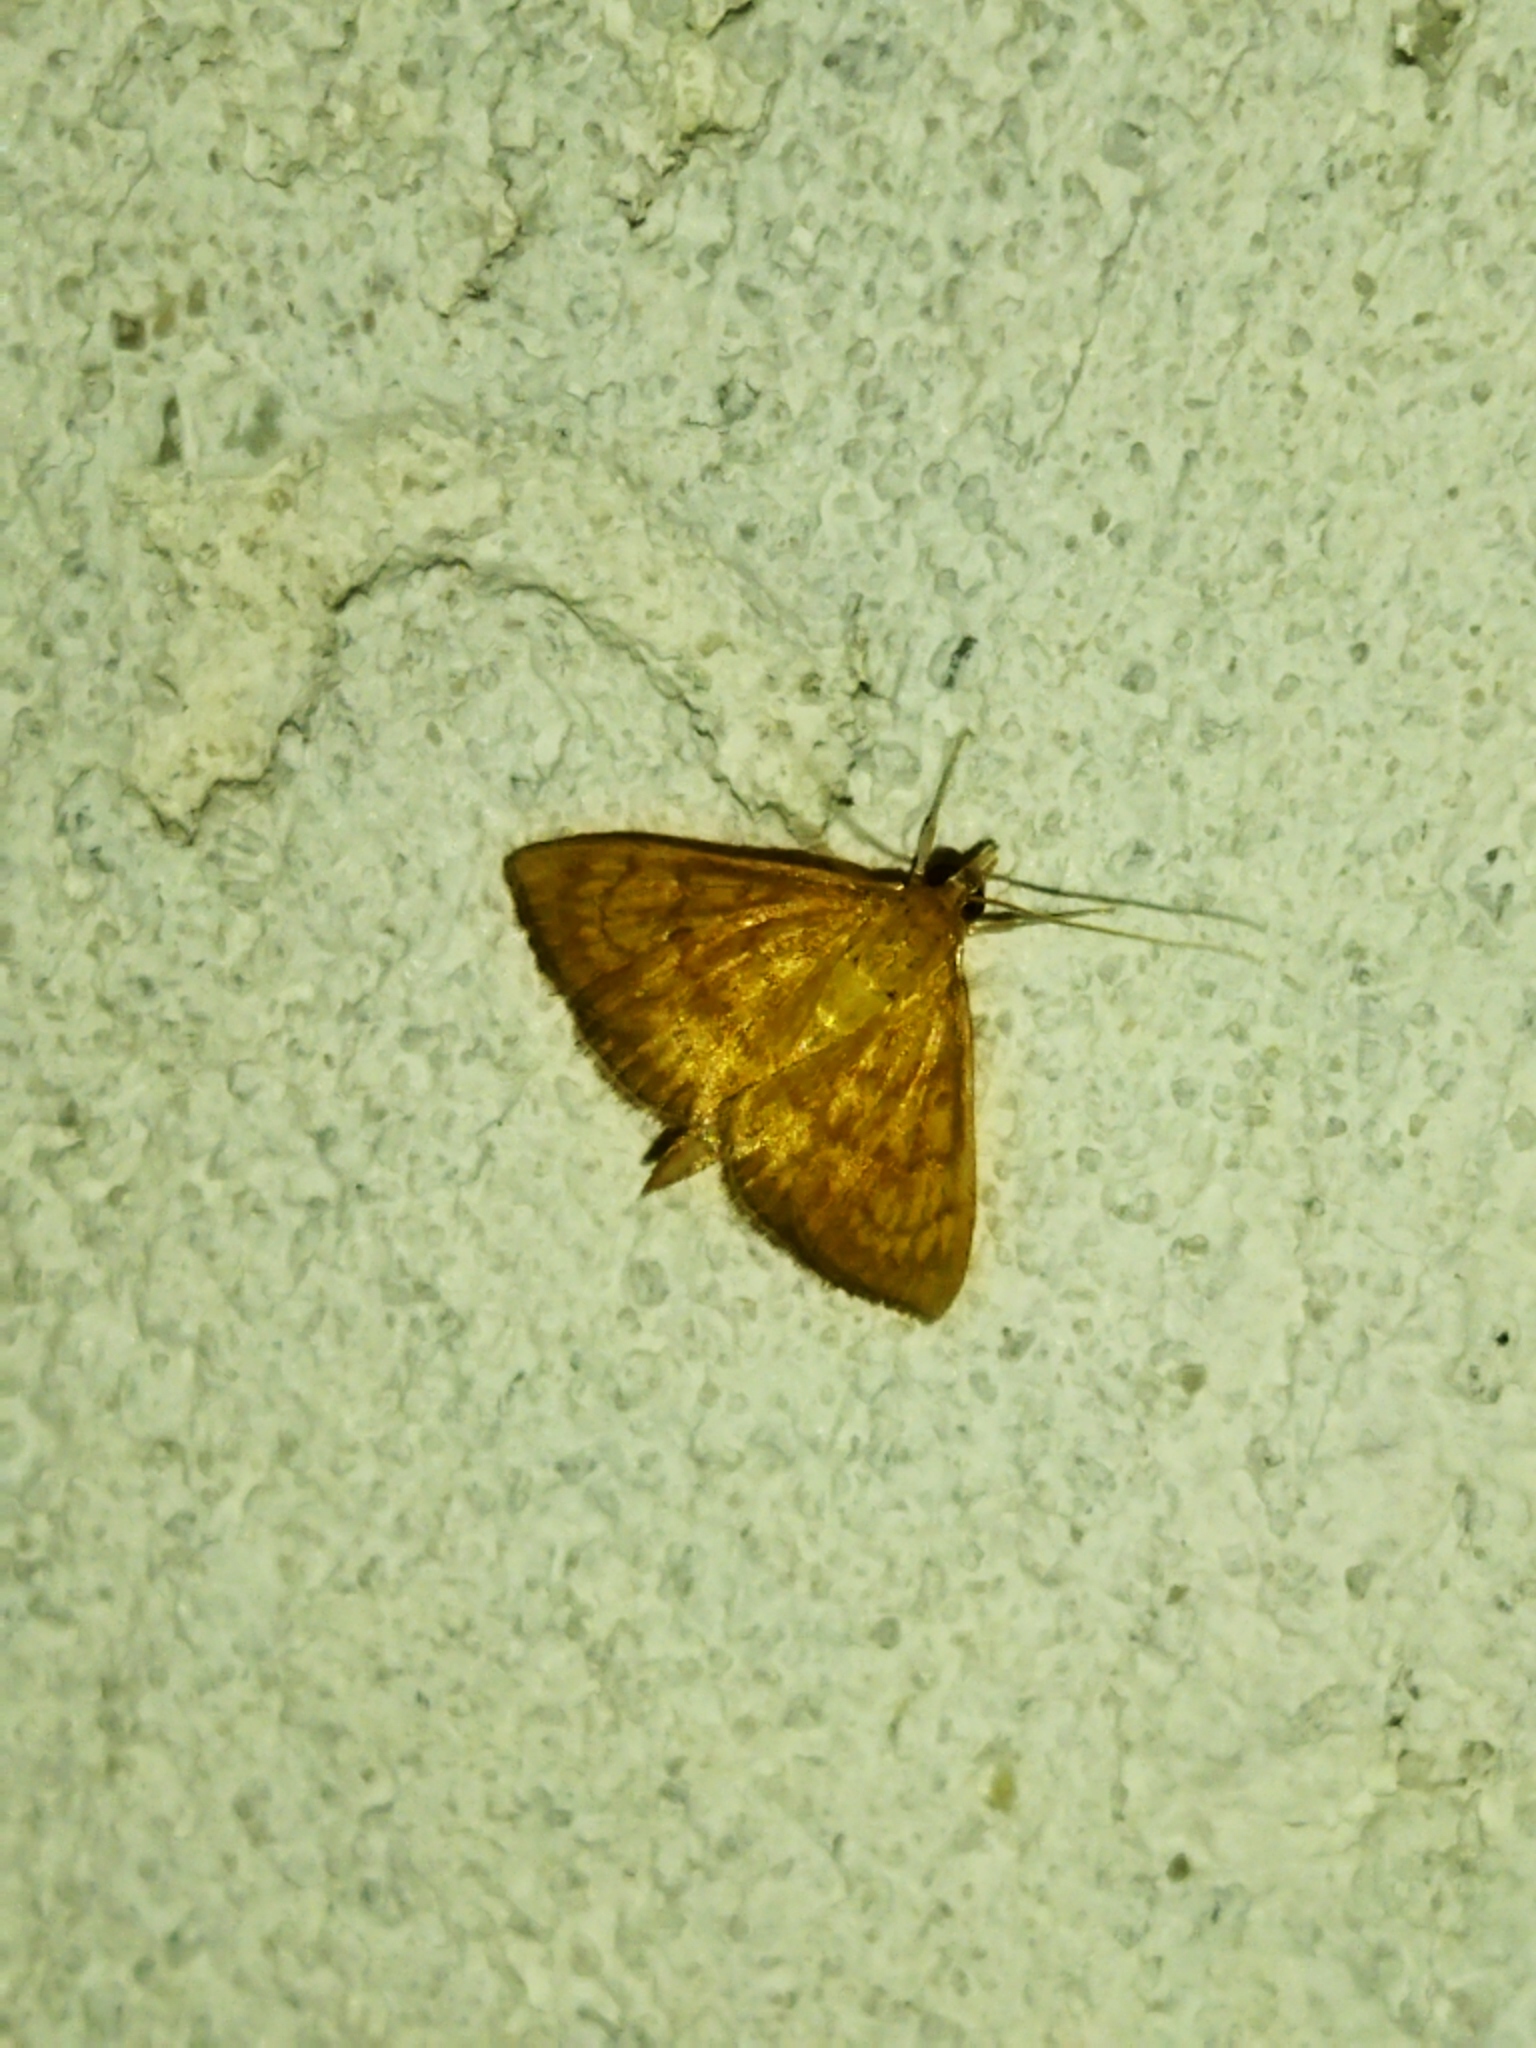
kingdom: Animalia
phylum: Arthropoda
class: Insecta
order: Lepidoptera
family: Crambidae
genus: Ecpyrrhorrhoe
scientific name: Ecpyrrhorrhoe rubiginalis
